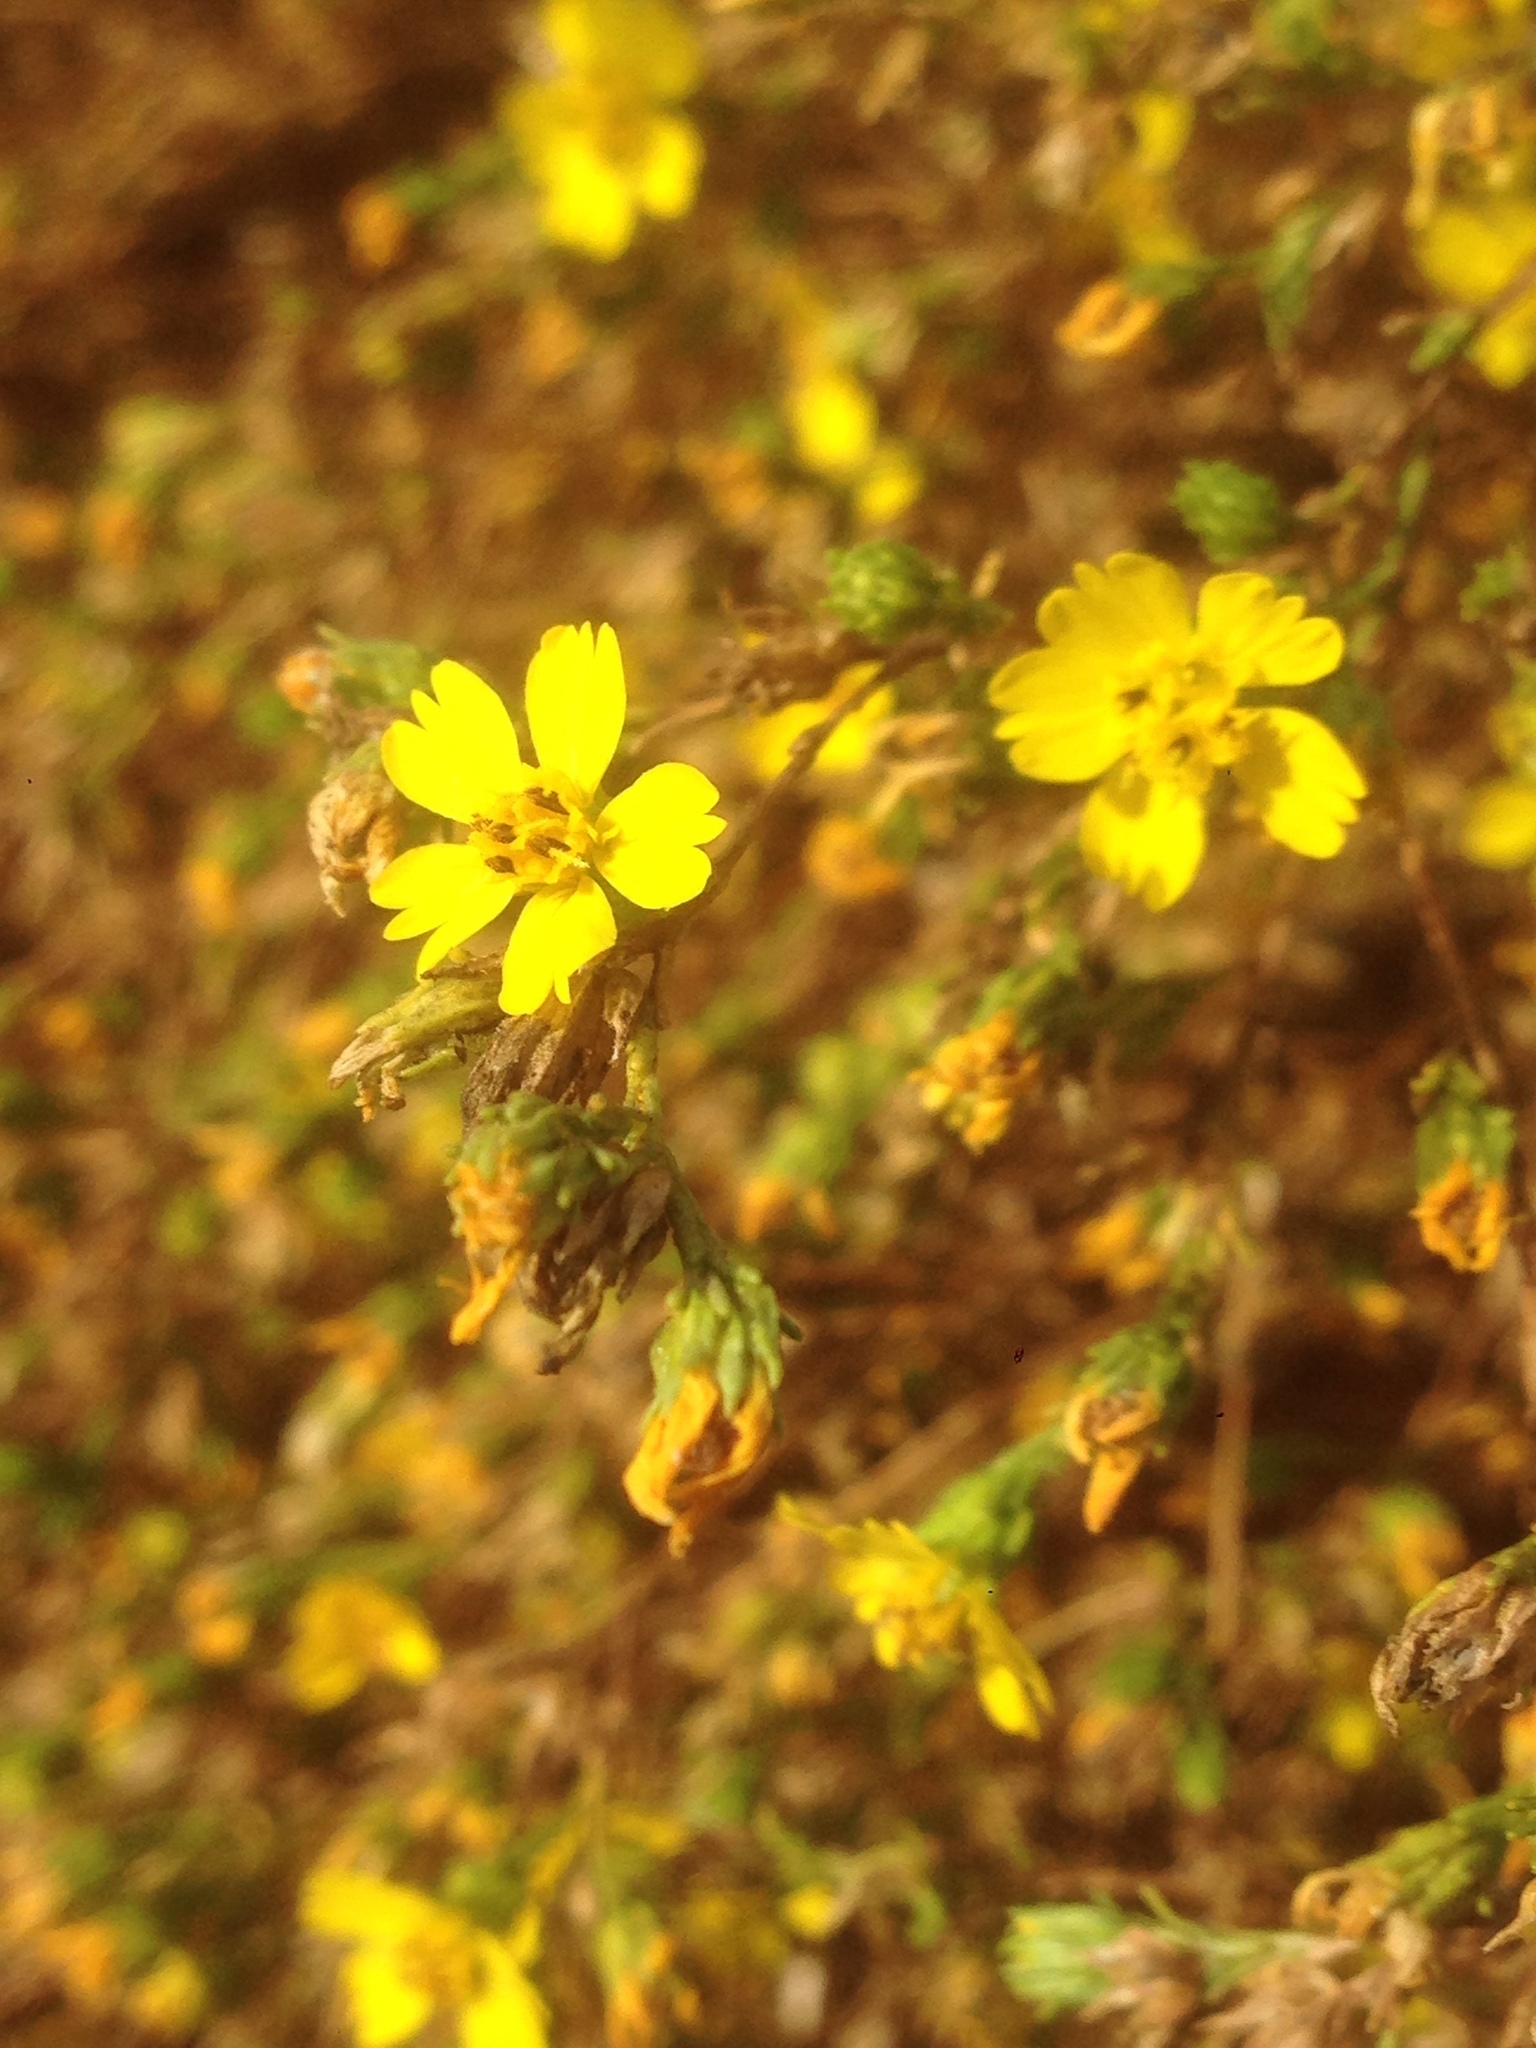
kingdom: Plantae
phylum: Tracheophyta
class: Magnoliopsida
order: Asterales
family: Asteraceae
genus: Deinandra
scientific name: Deinandra fasciculata
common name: Clustered tarweed
